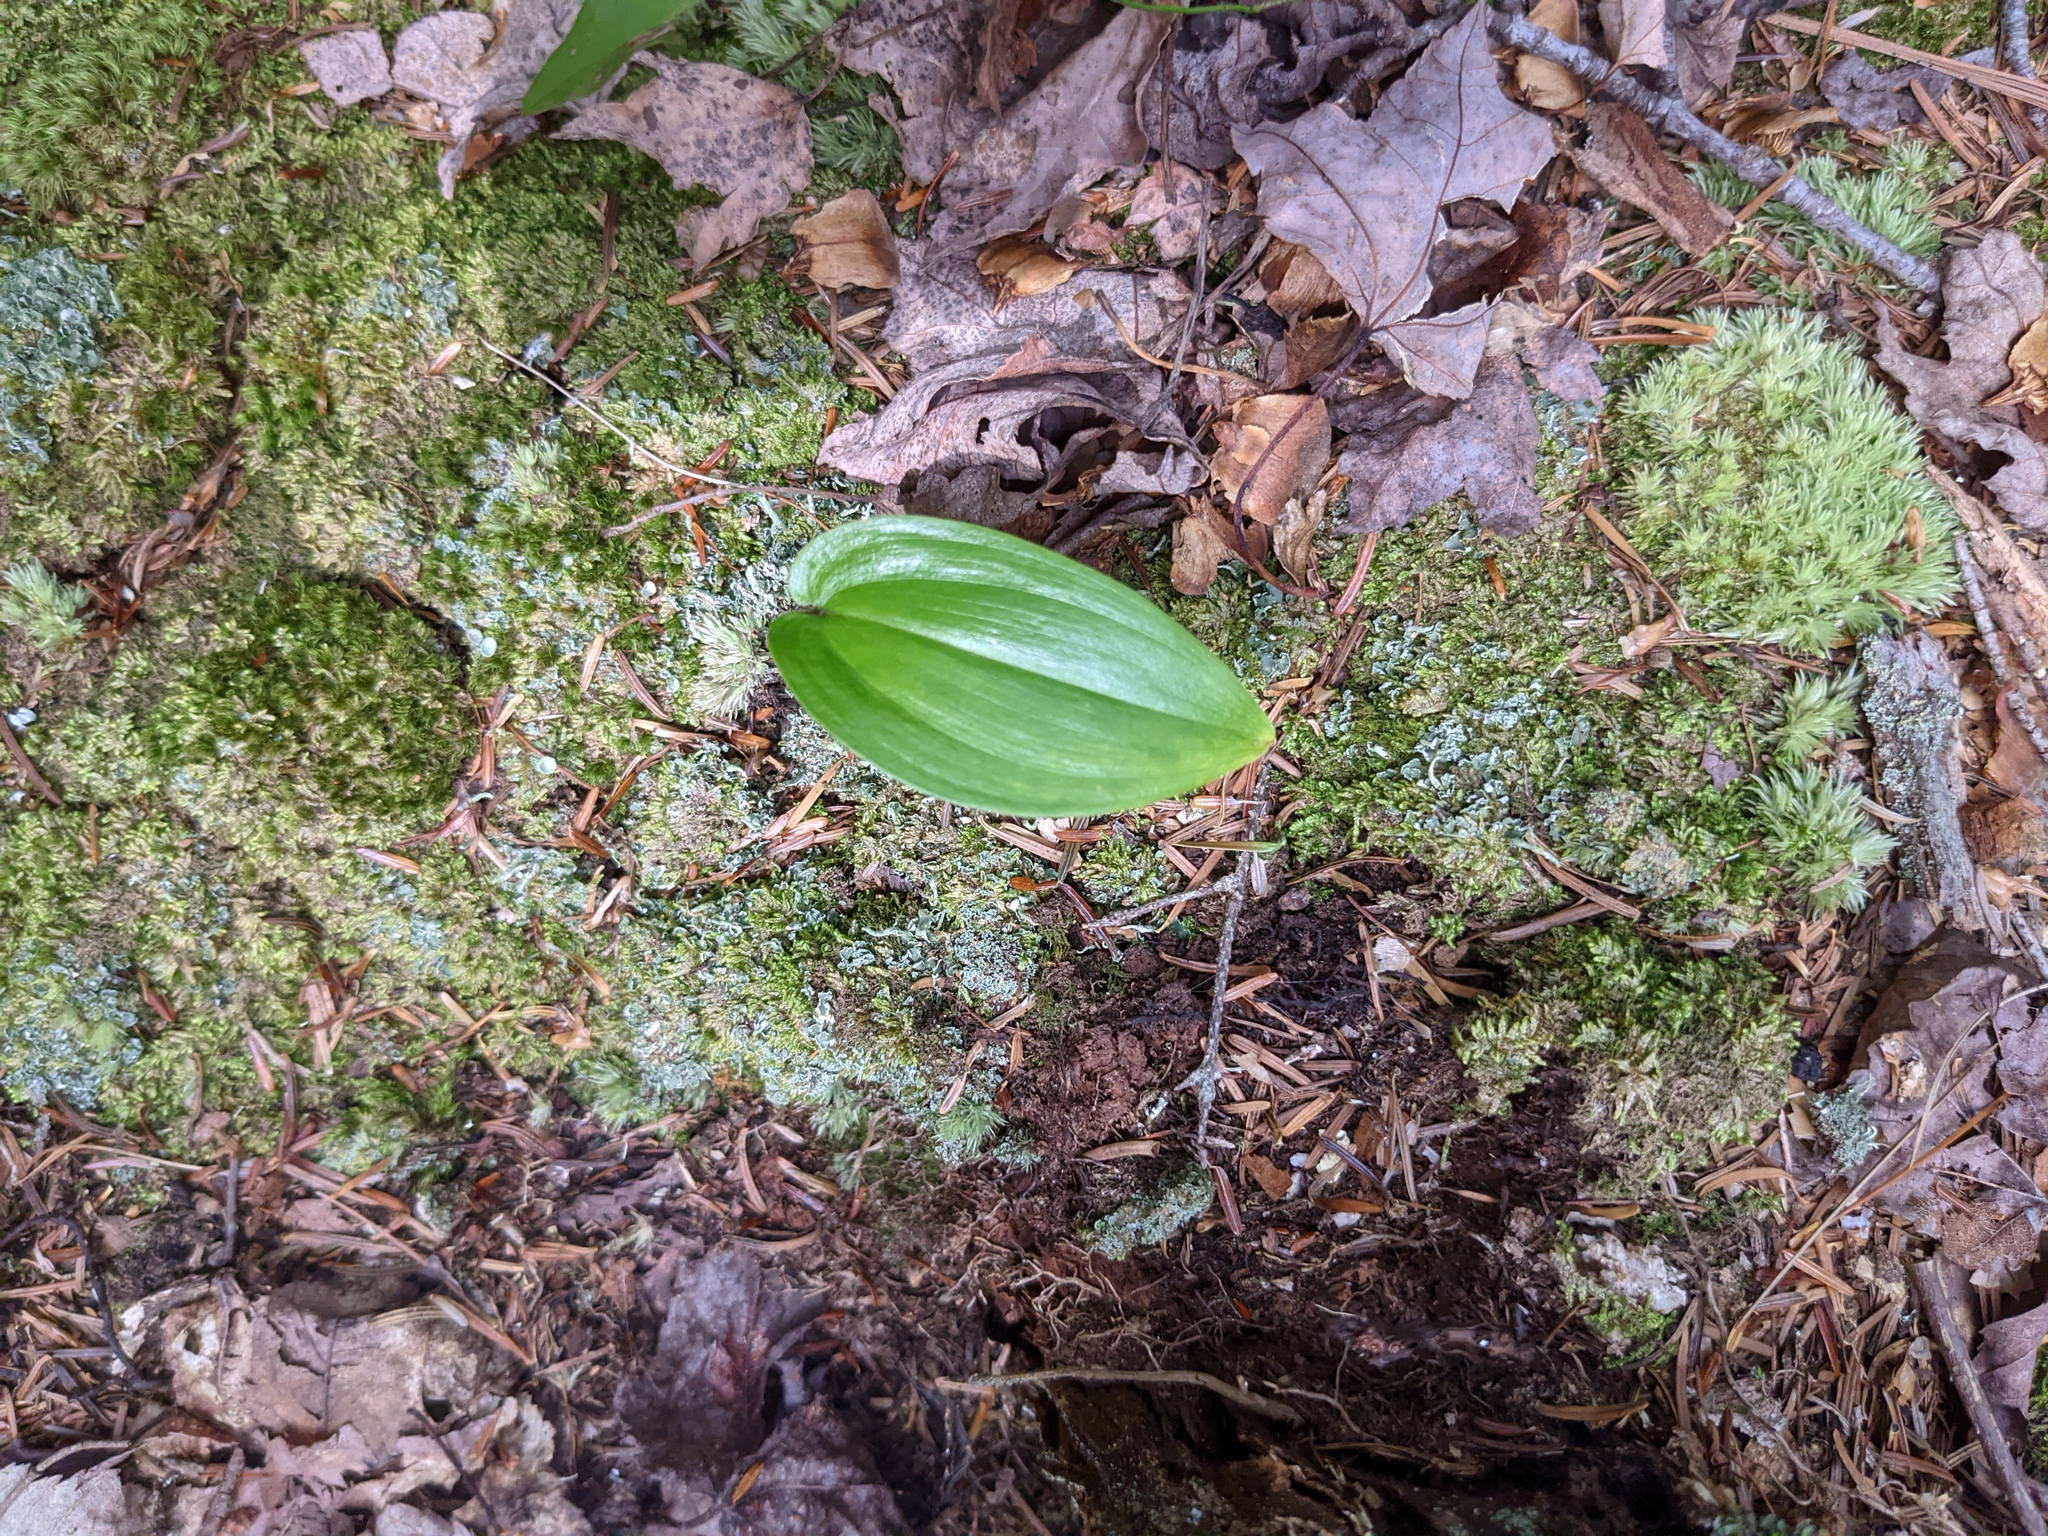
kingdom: Plantae
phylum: Tracheophyta
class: Liliopsida
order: Asparagales
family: Asparagaceae
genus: Maianthemum
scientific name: Maianthemum canadense
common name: False lily-of-the-valley
